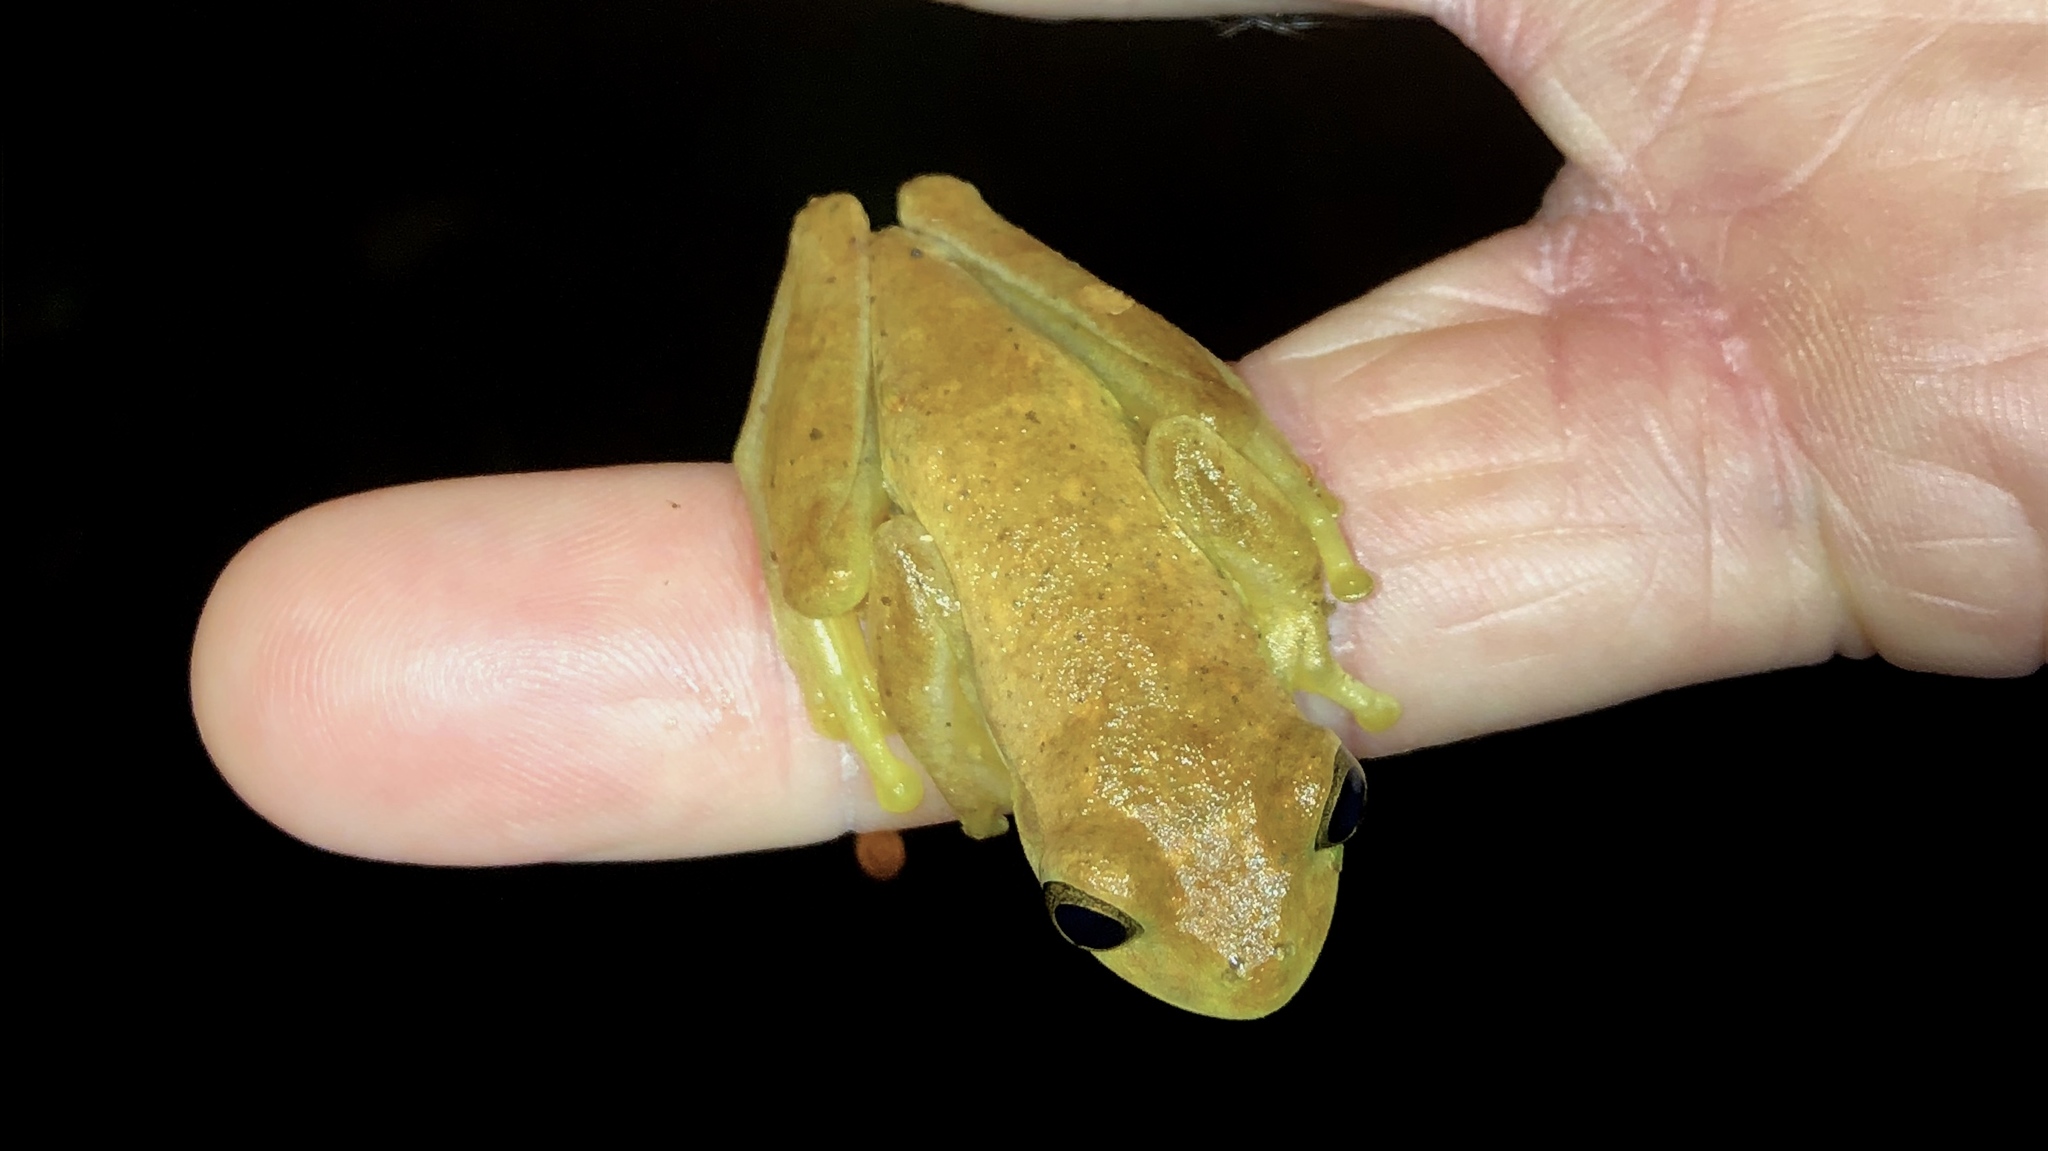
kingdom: Animalia
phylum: Chordata
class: Amphibia
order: Anura
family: Hylidae
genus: Isthmohyla
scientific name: Isthmohyla pseudopuma
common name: Gunther's costa rican treefrog
